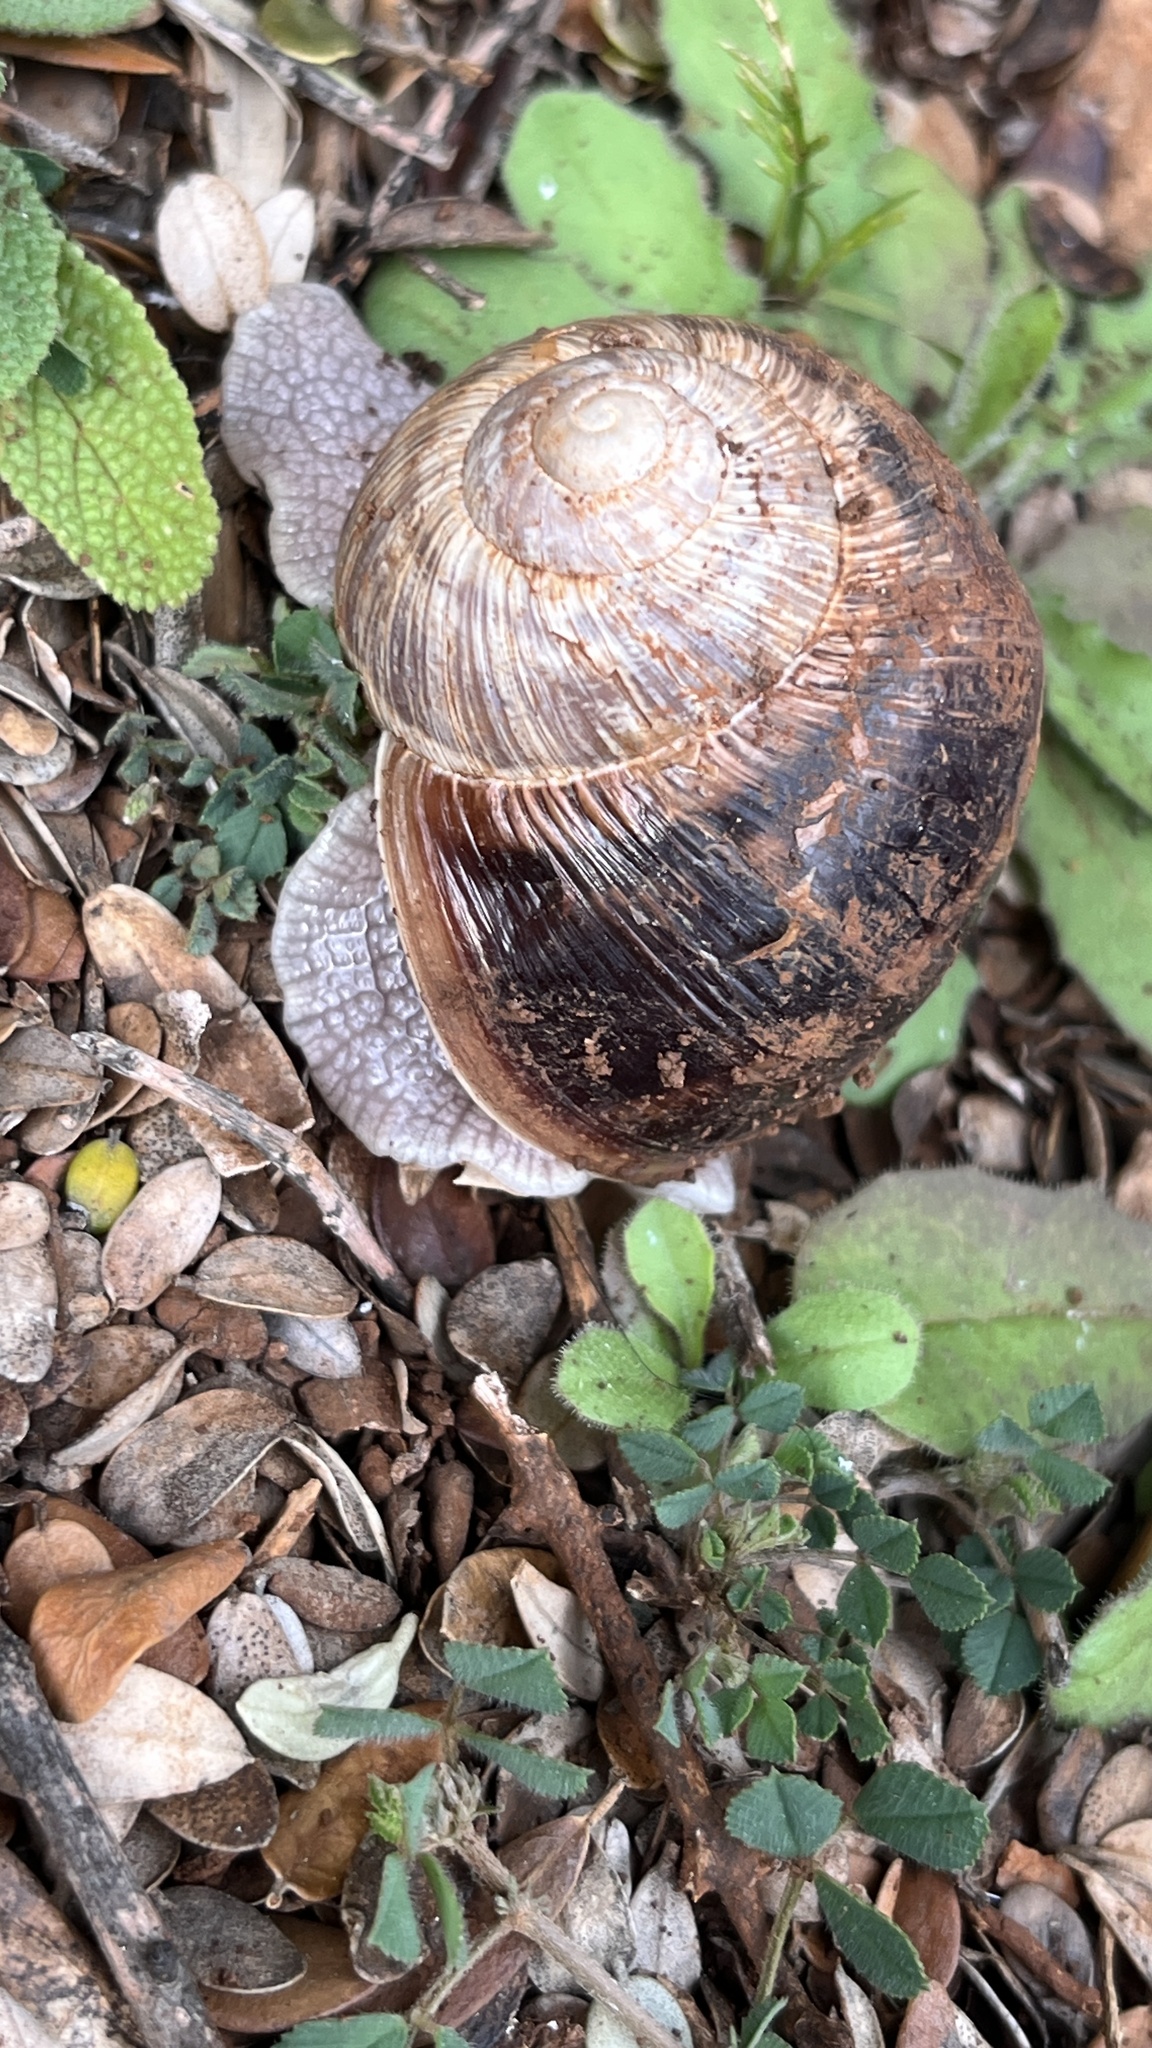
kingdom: Animalia
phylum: Mollusca
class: Gastropoda
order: Stylommatophora
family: Helicidae
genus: Helix
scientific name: Helix asemnis
